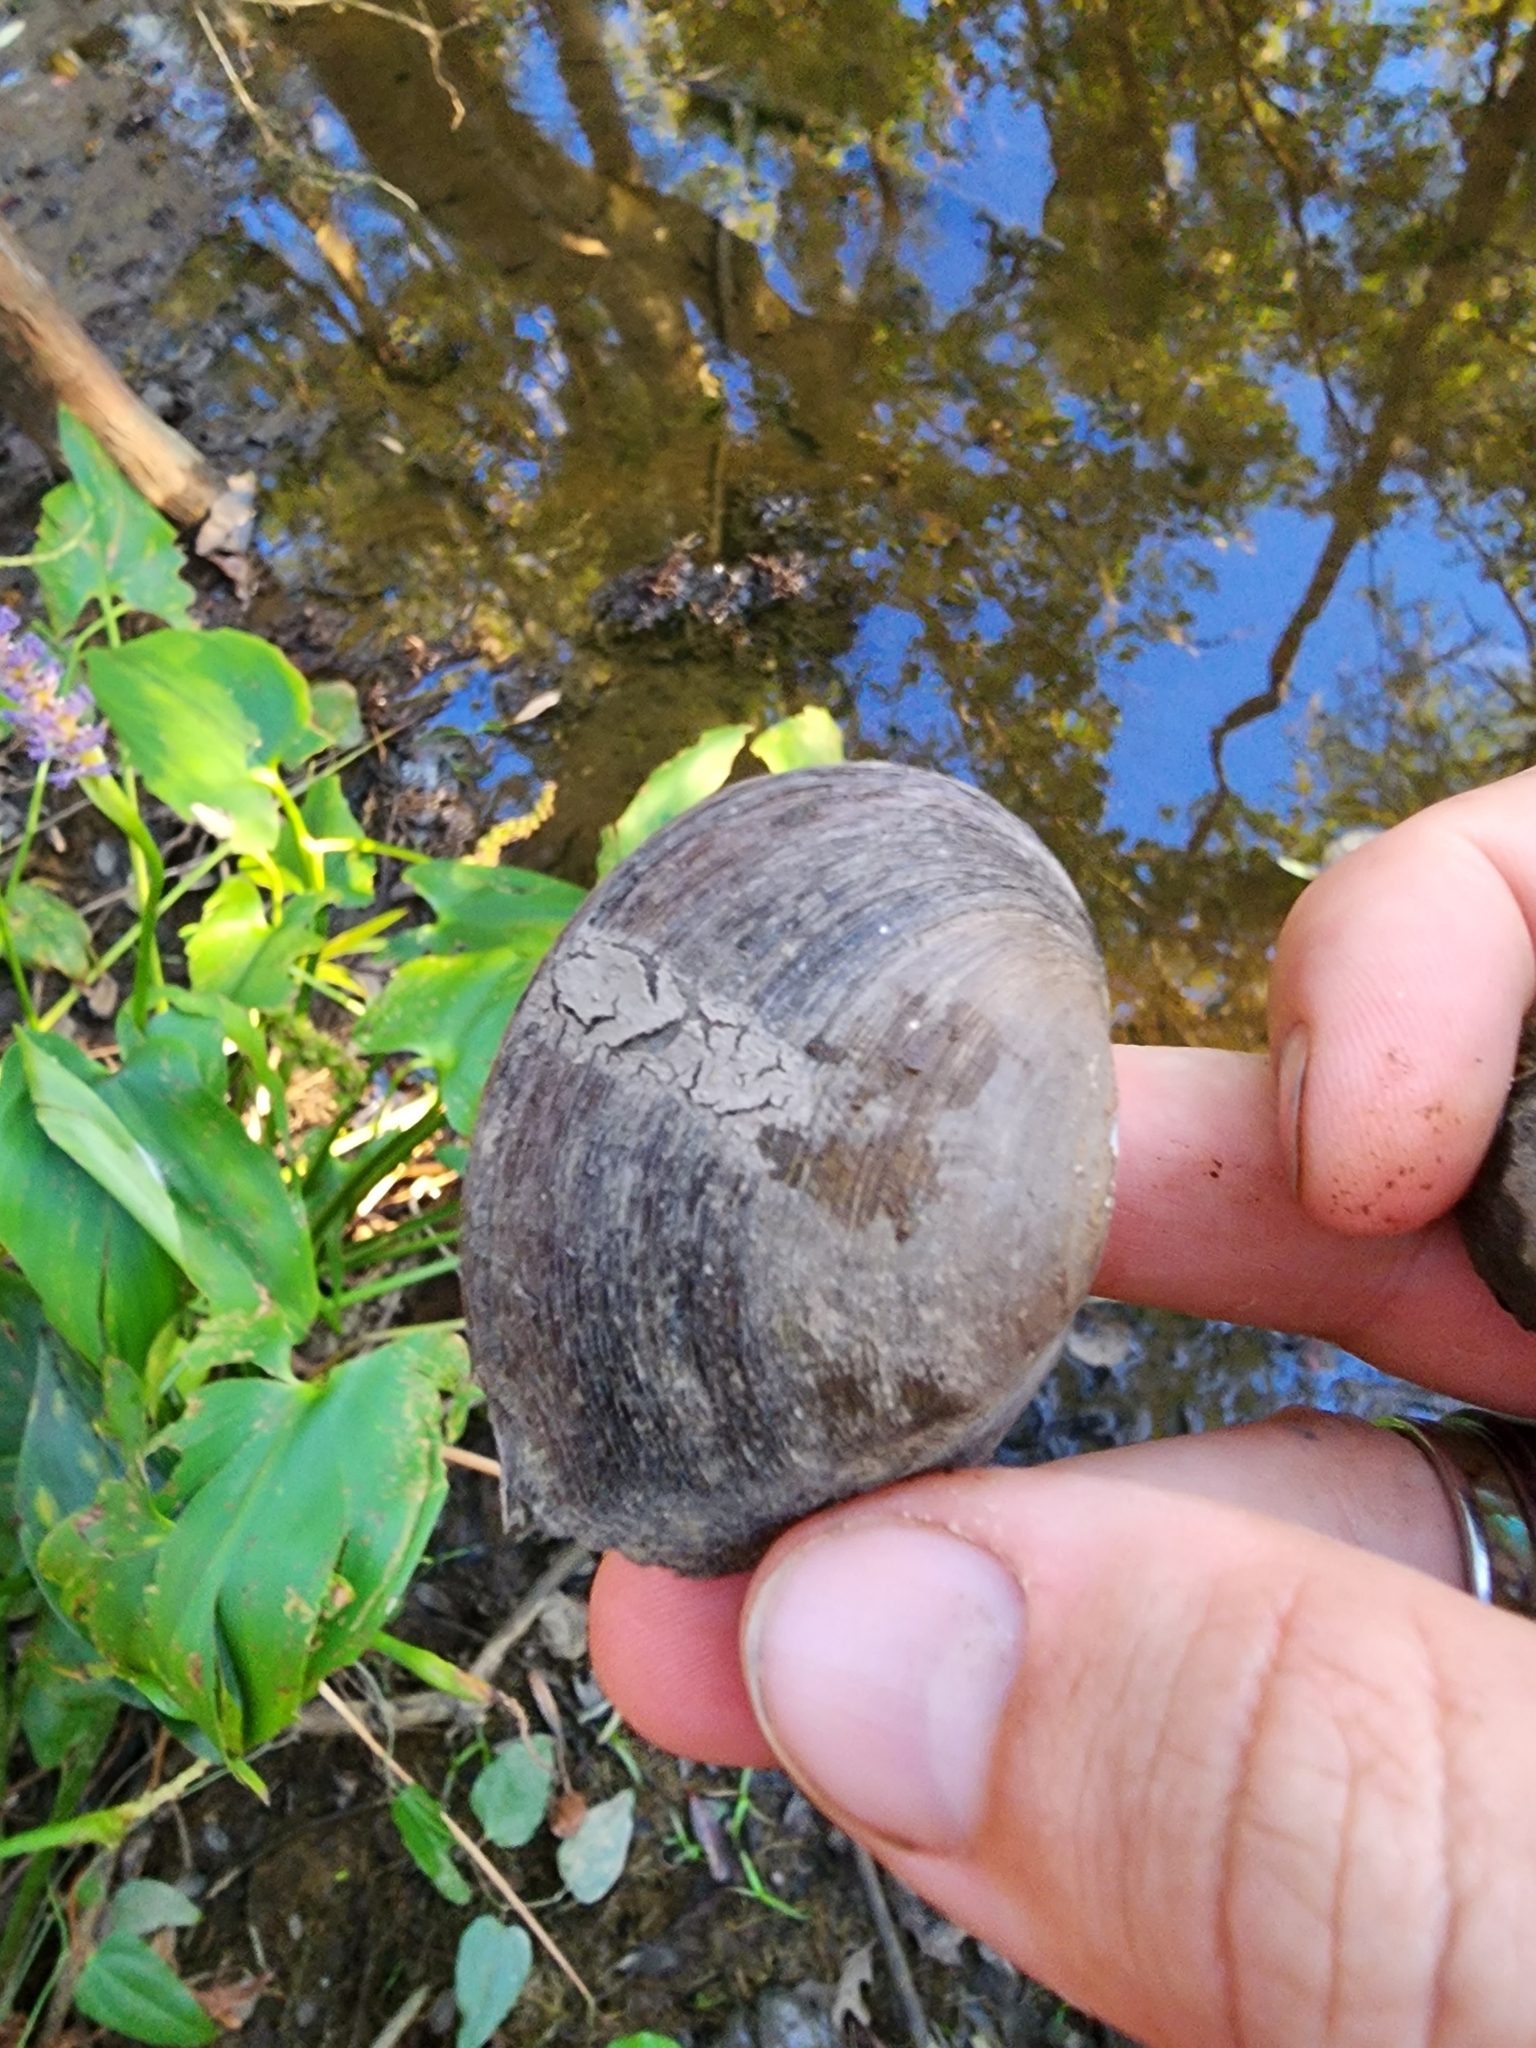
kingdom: Animalia
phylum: Mollusca
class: Bivalvia
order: Unionida
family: Unionidae
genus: Glebula
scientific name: Glebula rotundata
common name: Round pearlshell
